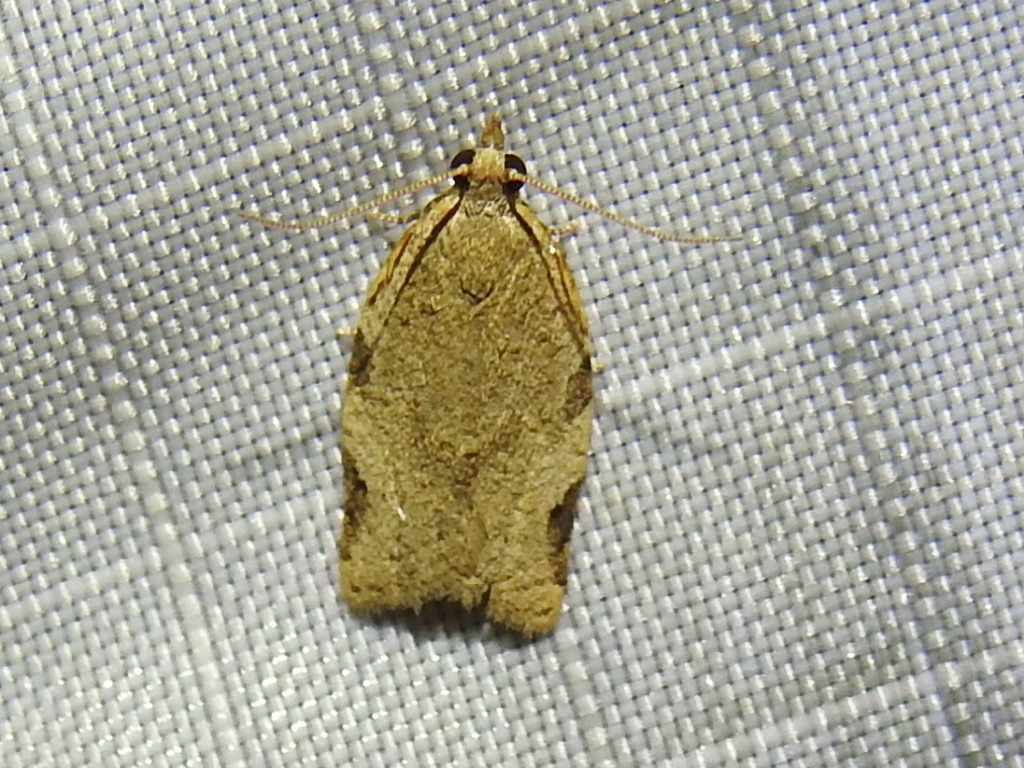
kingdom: Animalia
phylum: Arthropoda
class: Insecta
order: Lepidoptera
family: Tortricidae
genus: Clepsis
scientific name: Clepsis virescana
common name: Greenish apple moth
